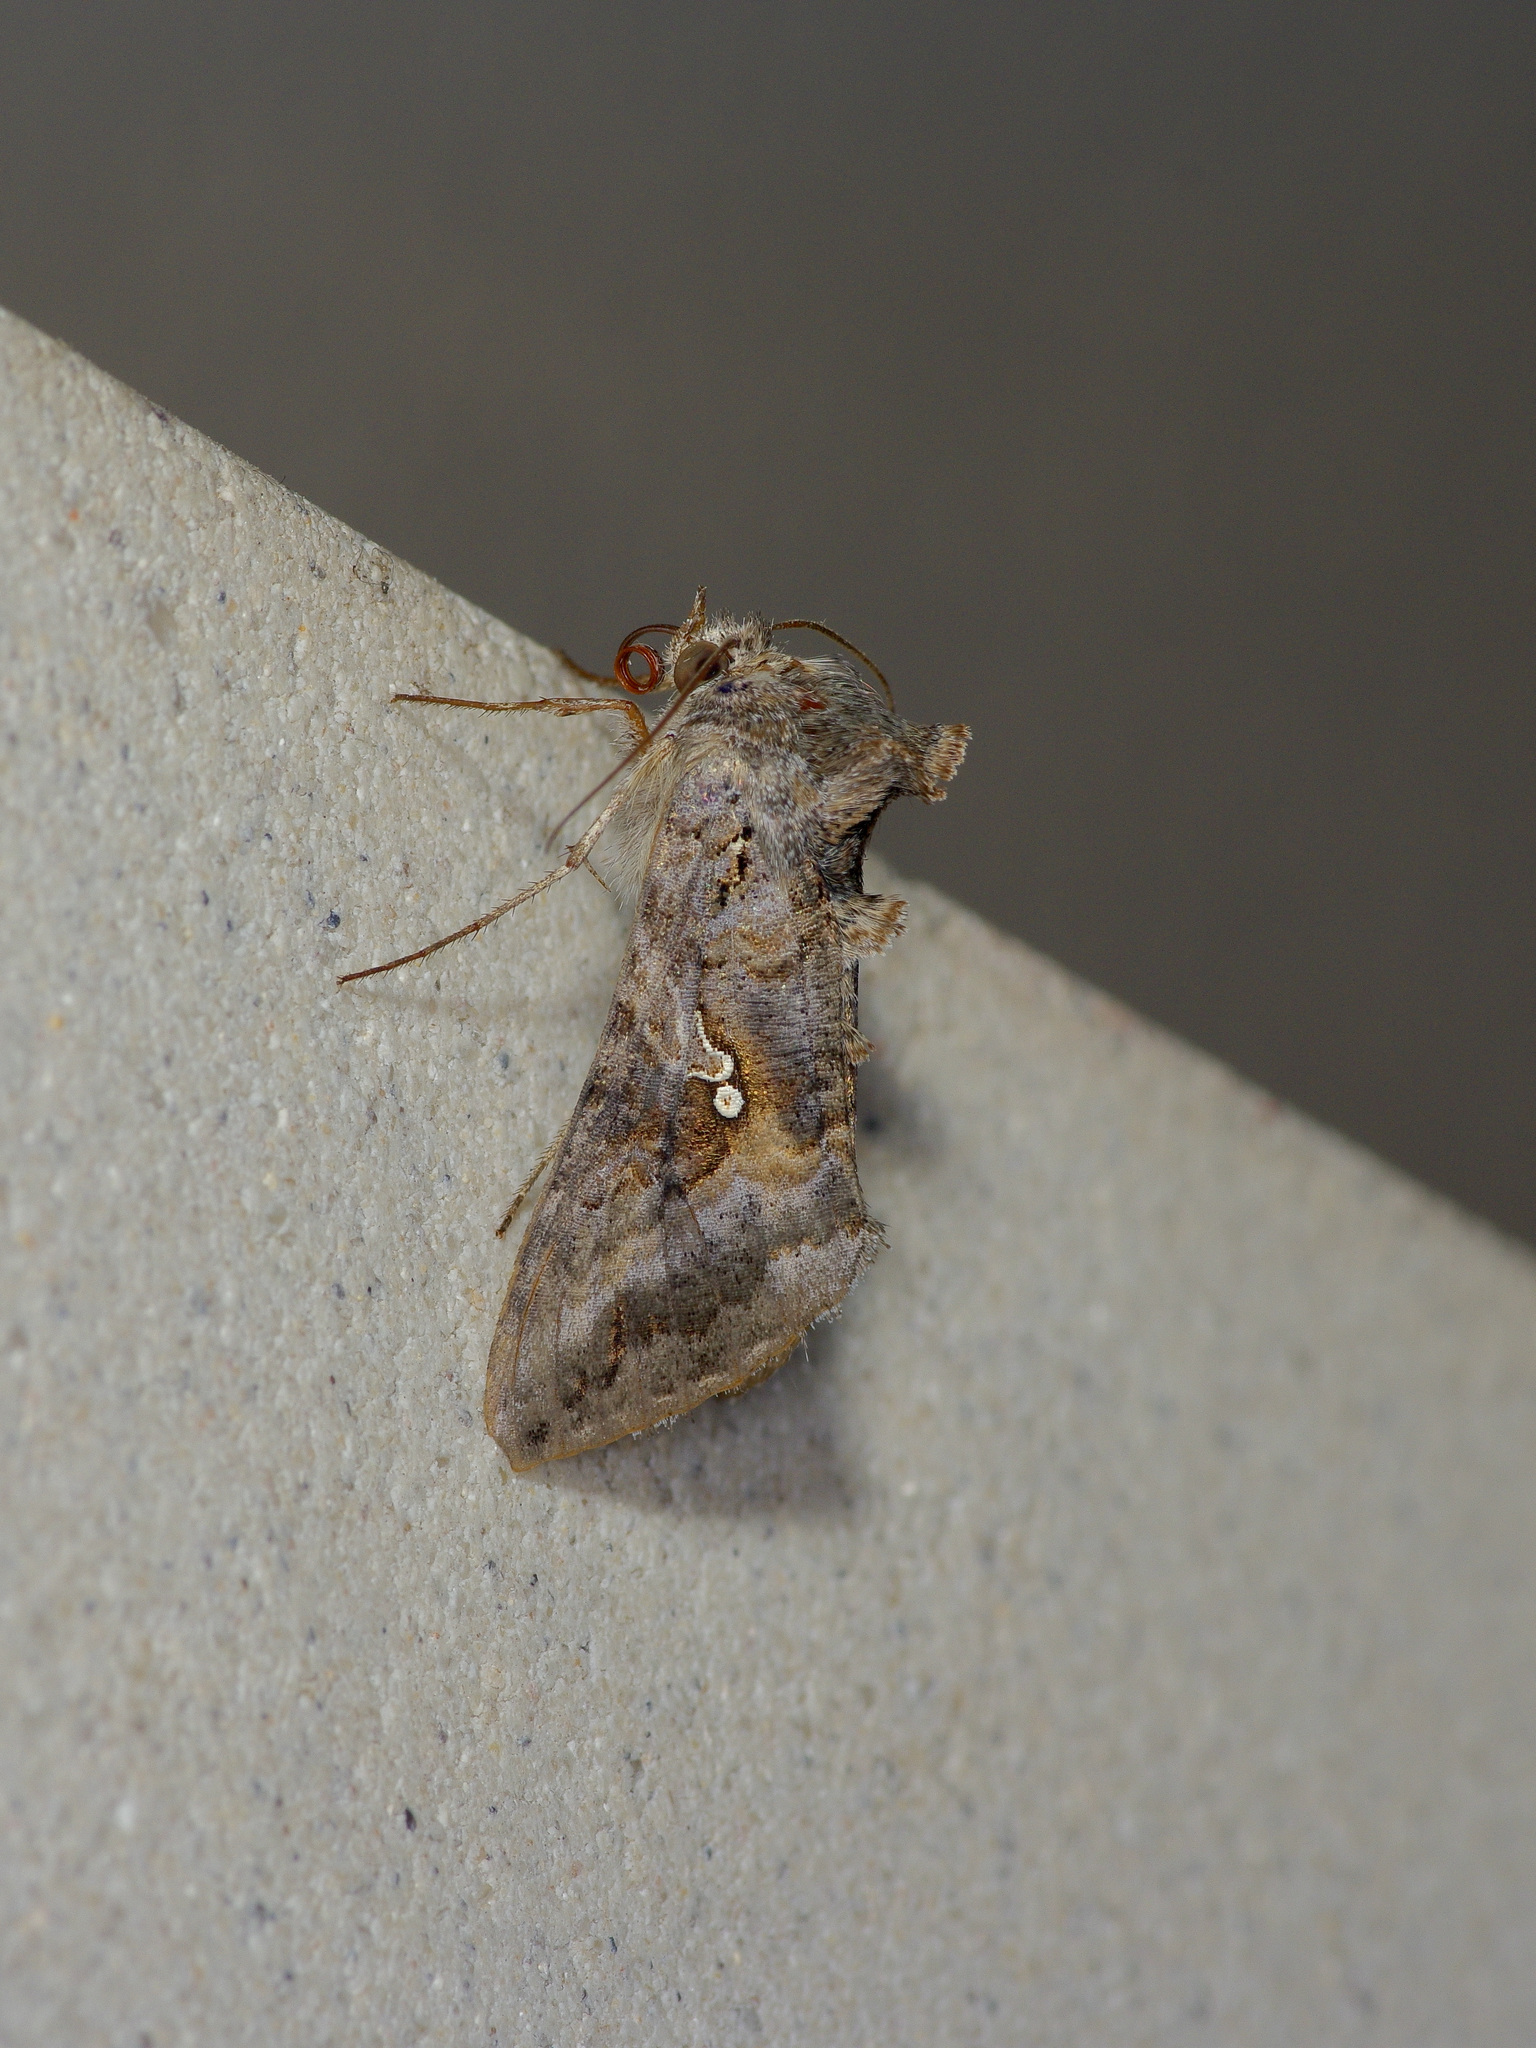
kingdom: Animalia
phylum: Arthropoda
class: Insecta
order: Lepidoptera
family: Noctuidae
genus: Rachiplusia
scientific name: Rachiplusia ou
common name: Gray looper moth
